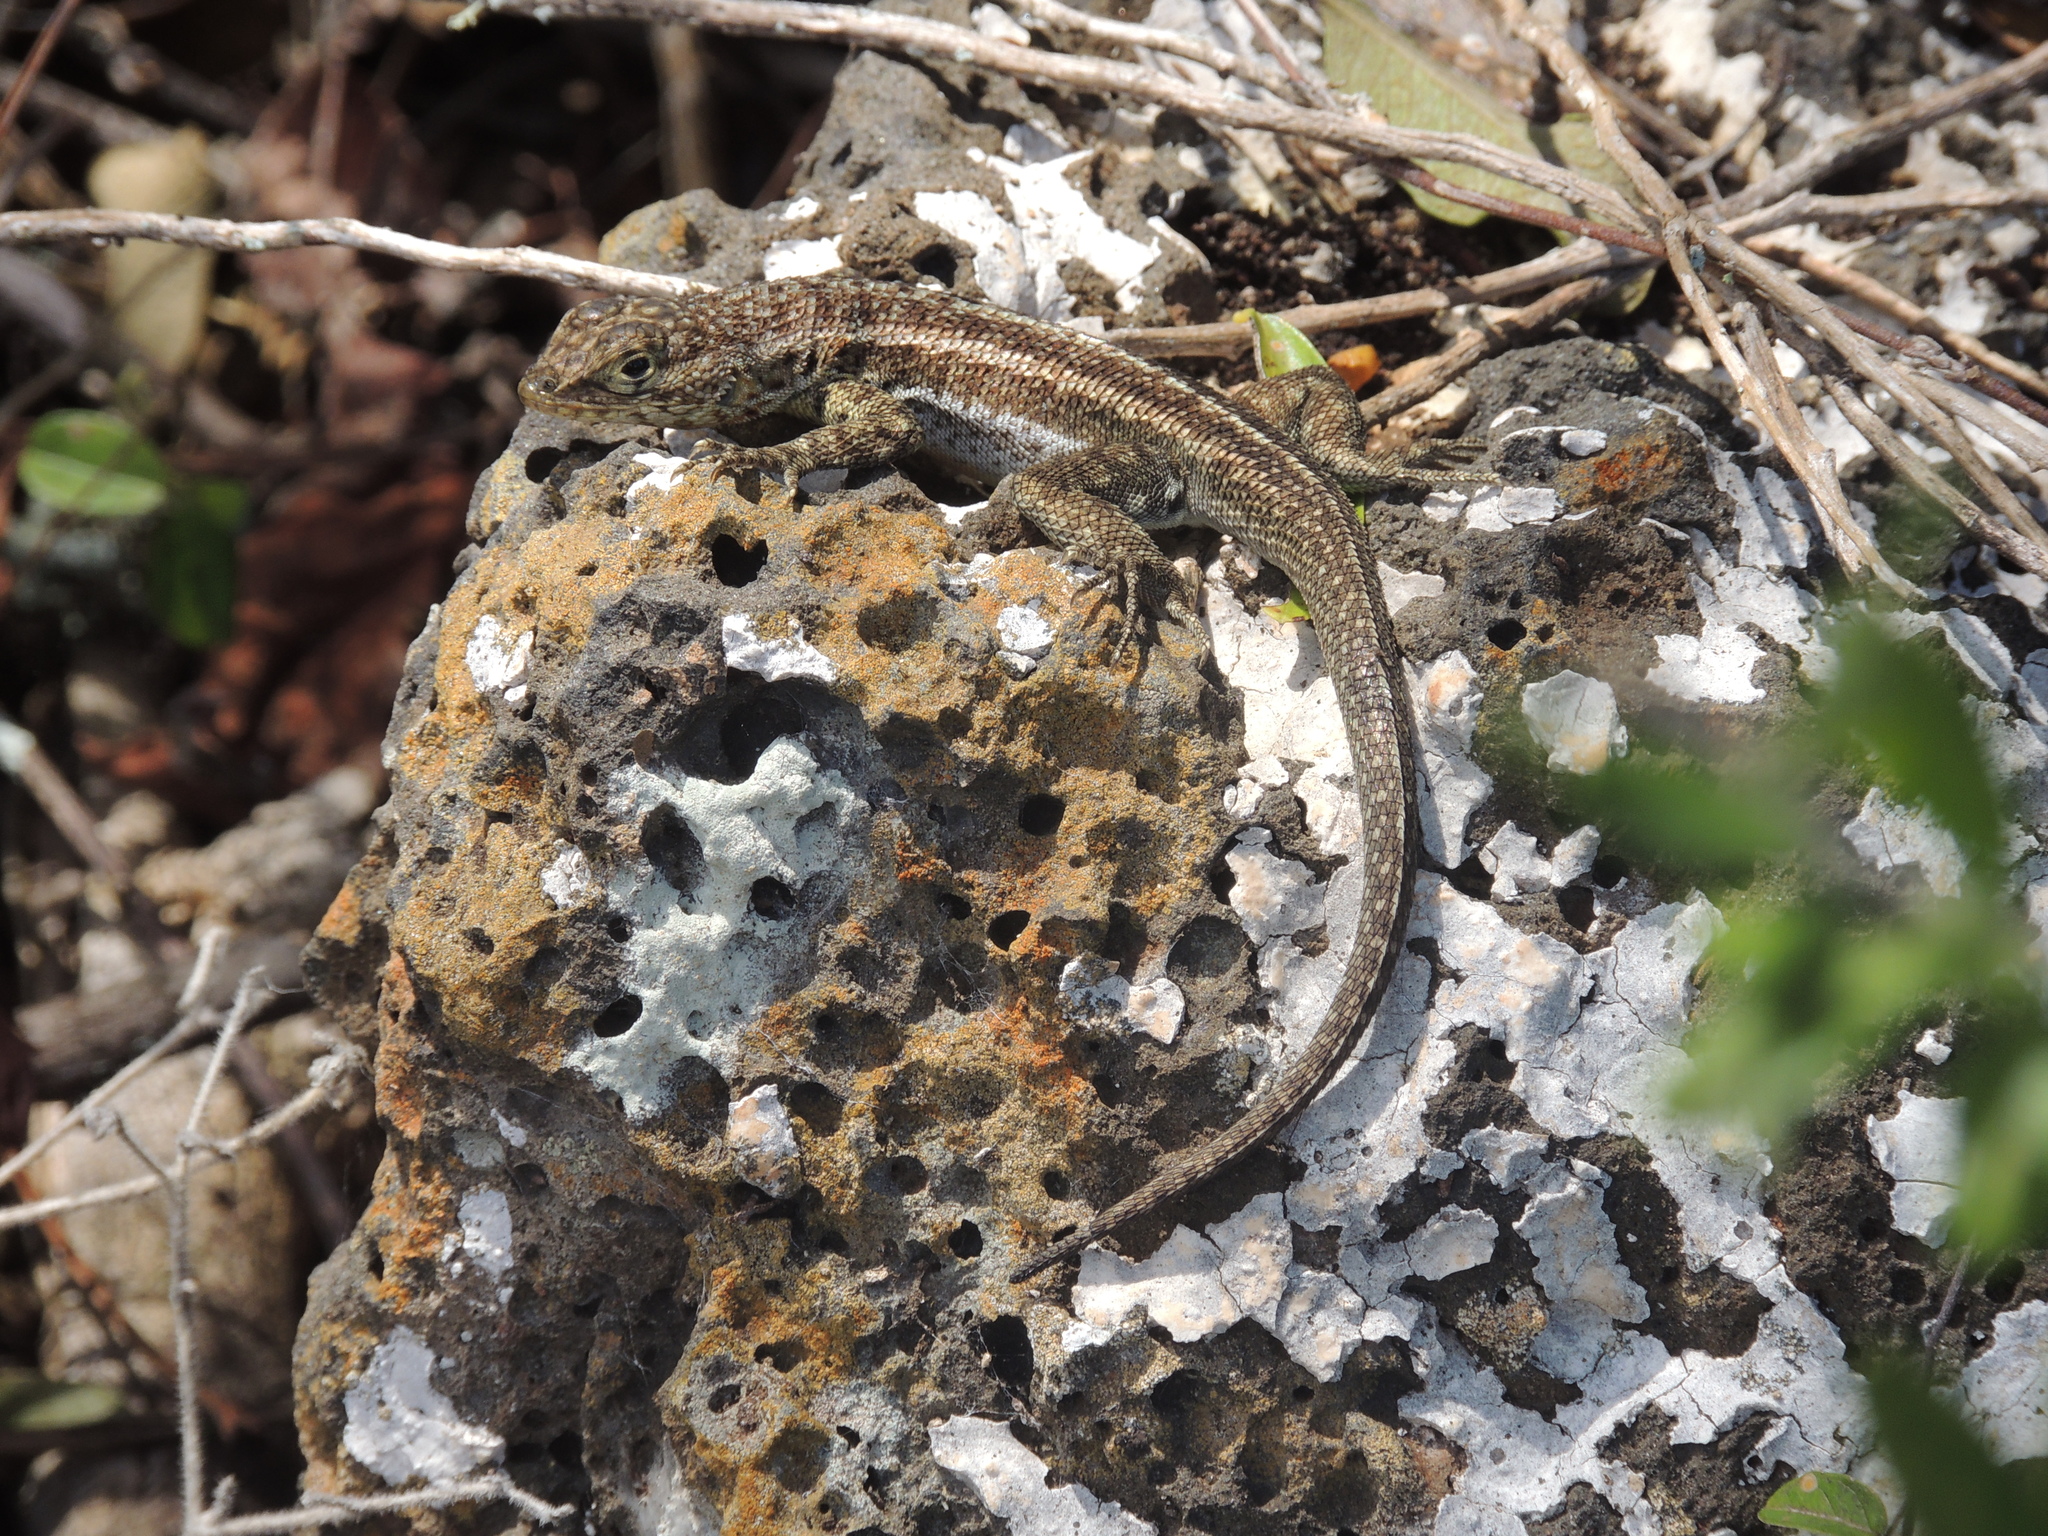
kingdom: Animalia
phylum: Chordata
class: Squamata
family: Tropiduridae
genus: Microlophus
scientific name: Microlophus indefatigabilis
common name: Galapagos lava lizard
